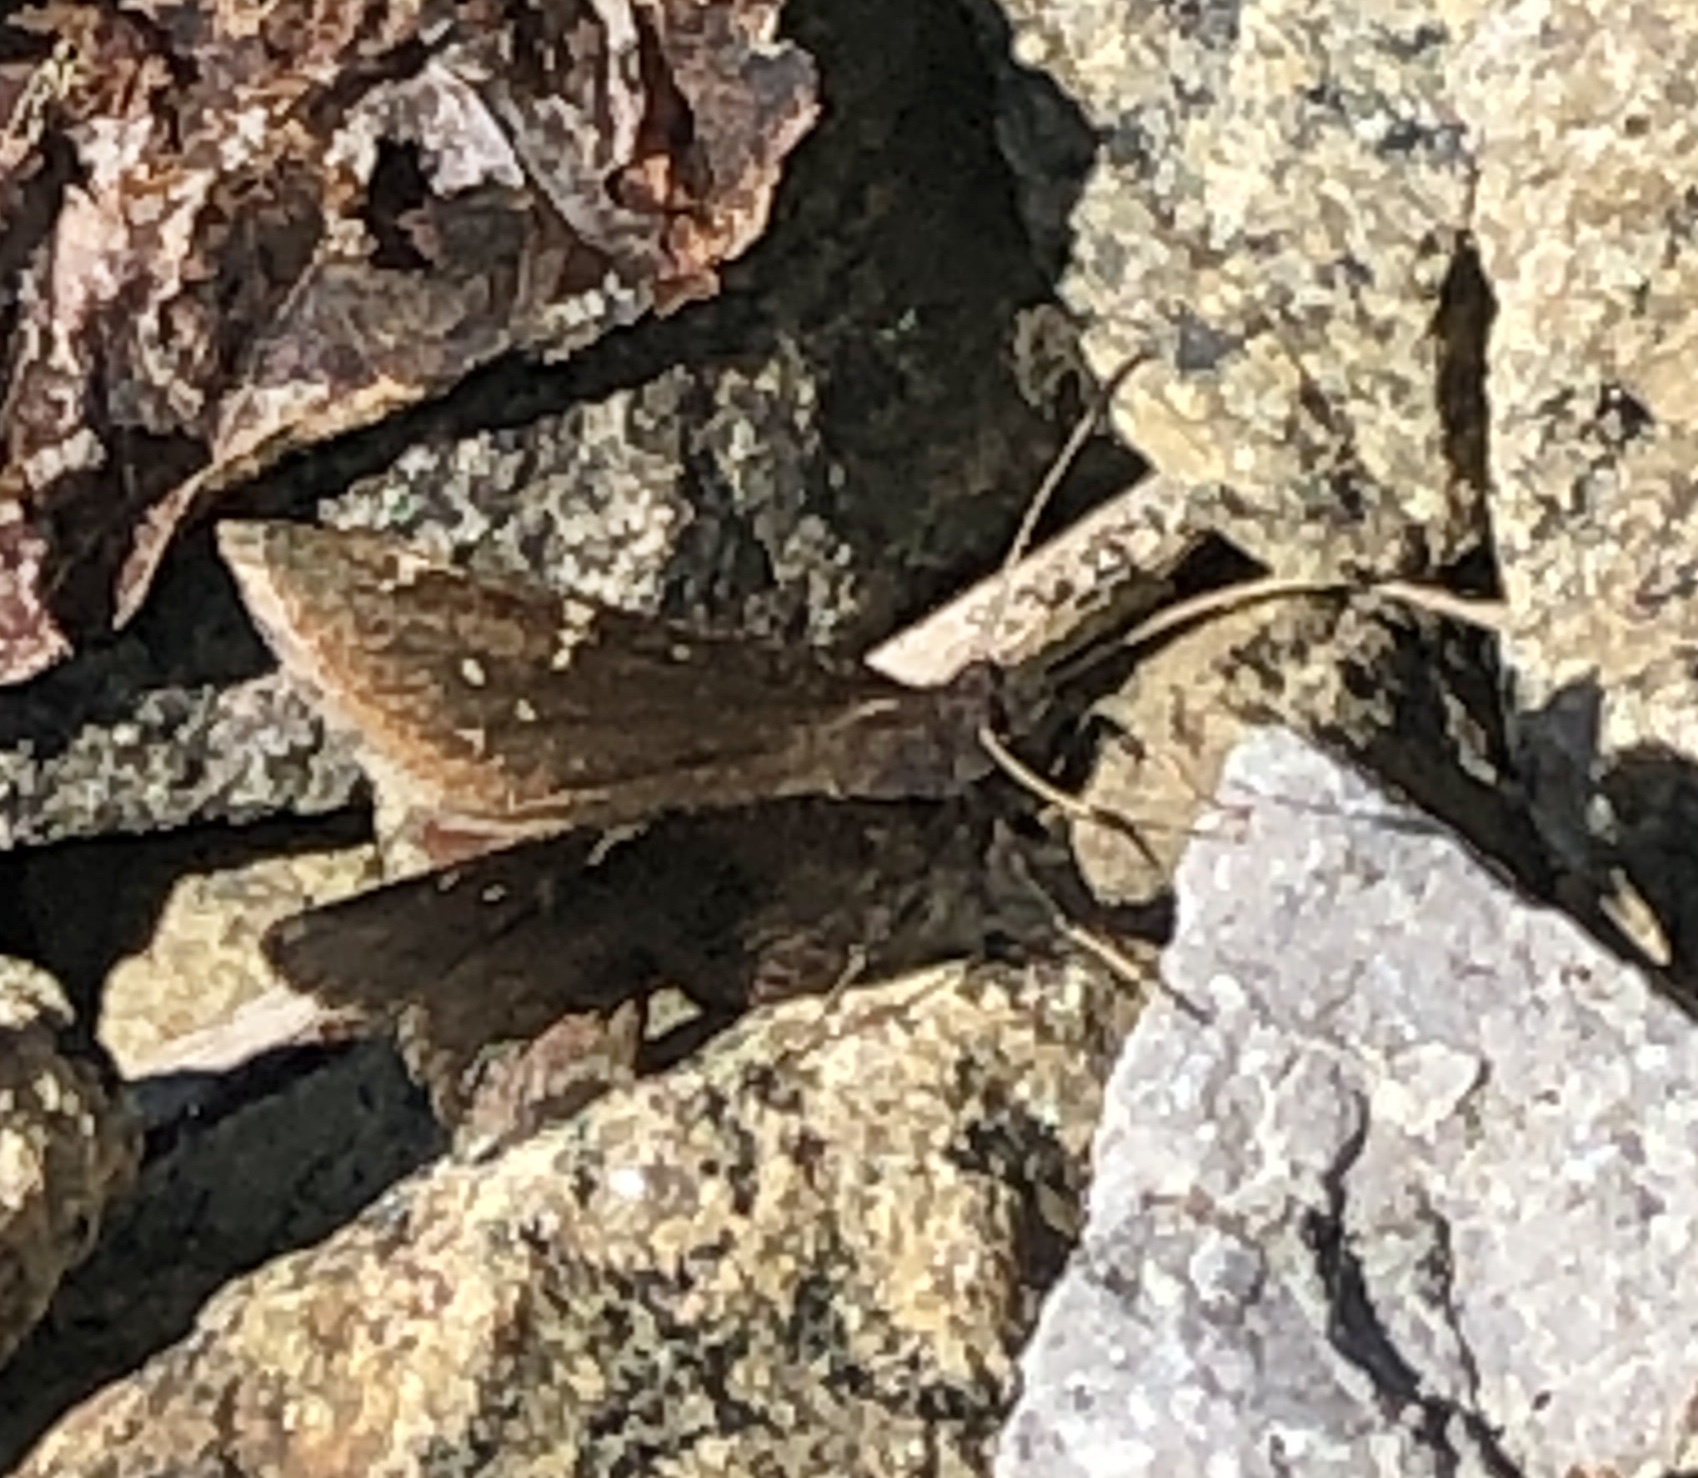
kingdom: Animalia
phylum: Arthropoda
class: Insecta
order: Lepidoptera
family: Hesperiidae
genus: Thorybes
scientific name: Thorybes pylades
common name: Northern cloudywing
